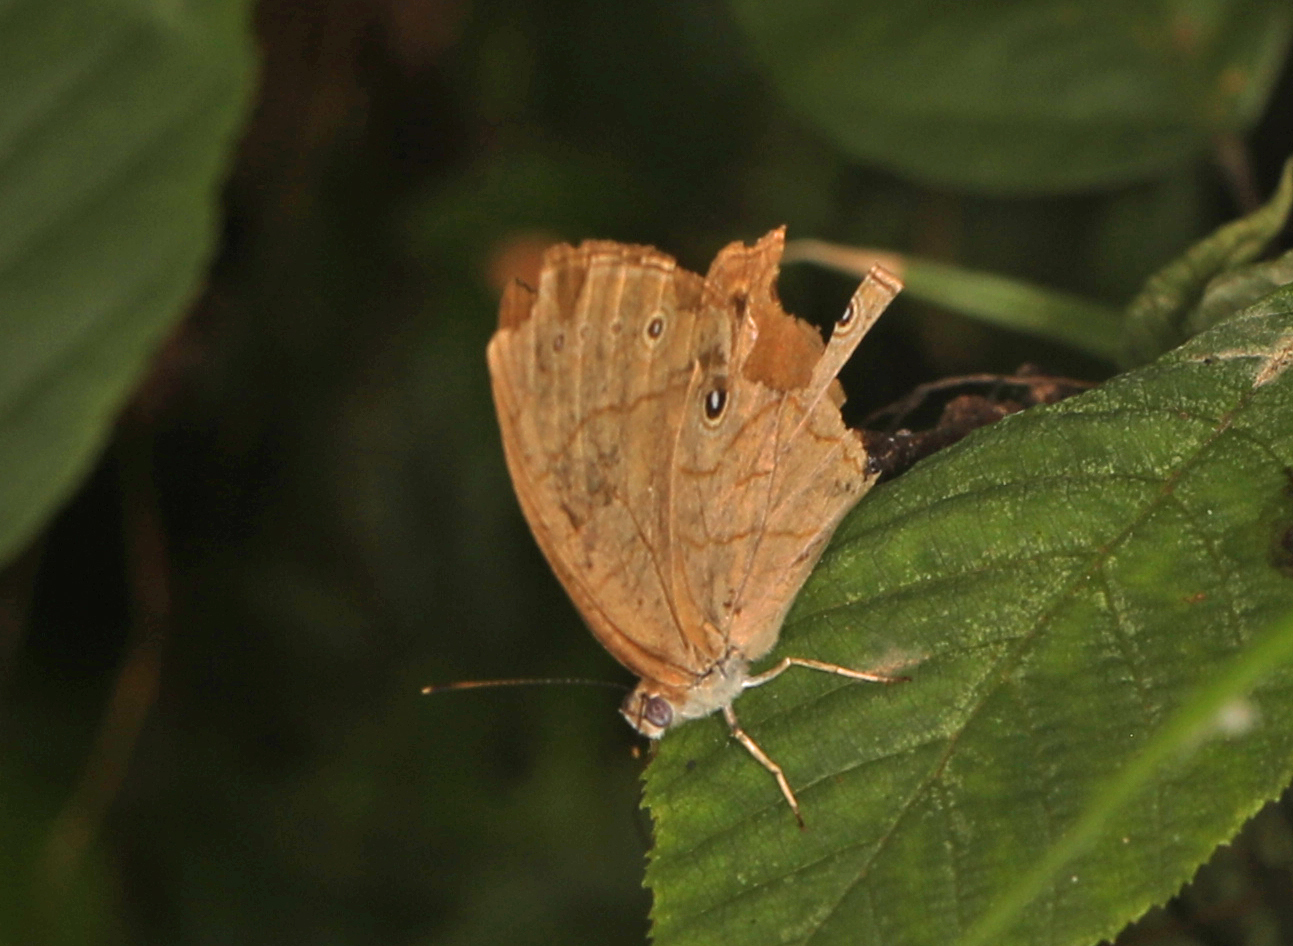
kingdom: Animalia
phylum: Arthropoda
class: Insecta
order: Lepidoptera
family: Nymphalidae
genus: Lethe
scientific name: Lethe eurydice
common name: Eyed brown
